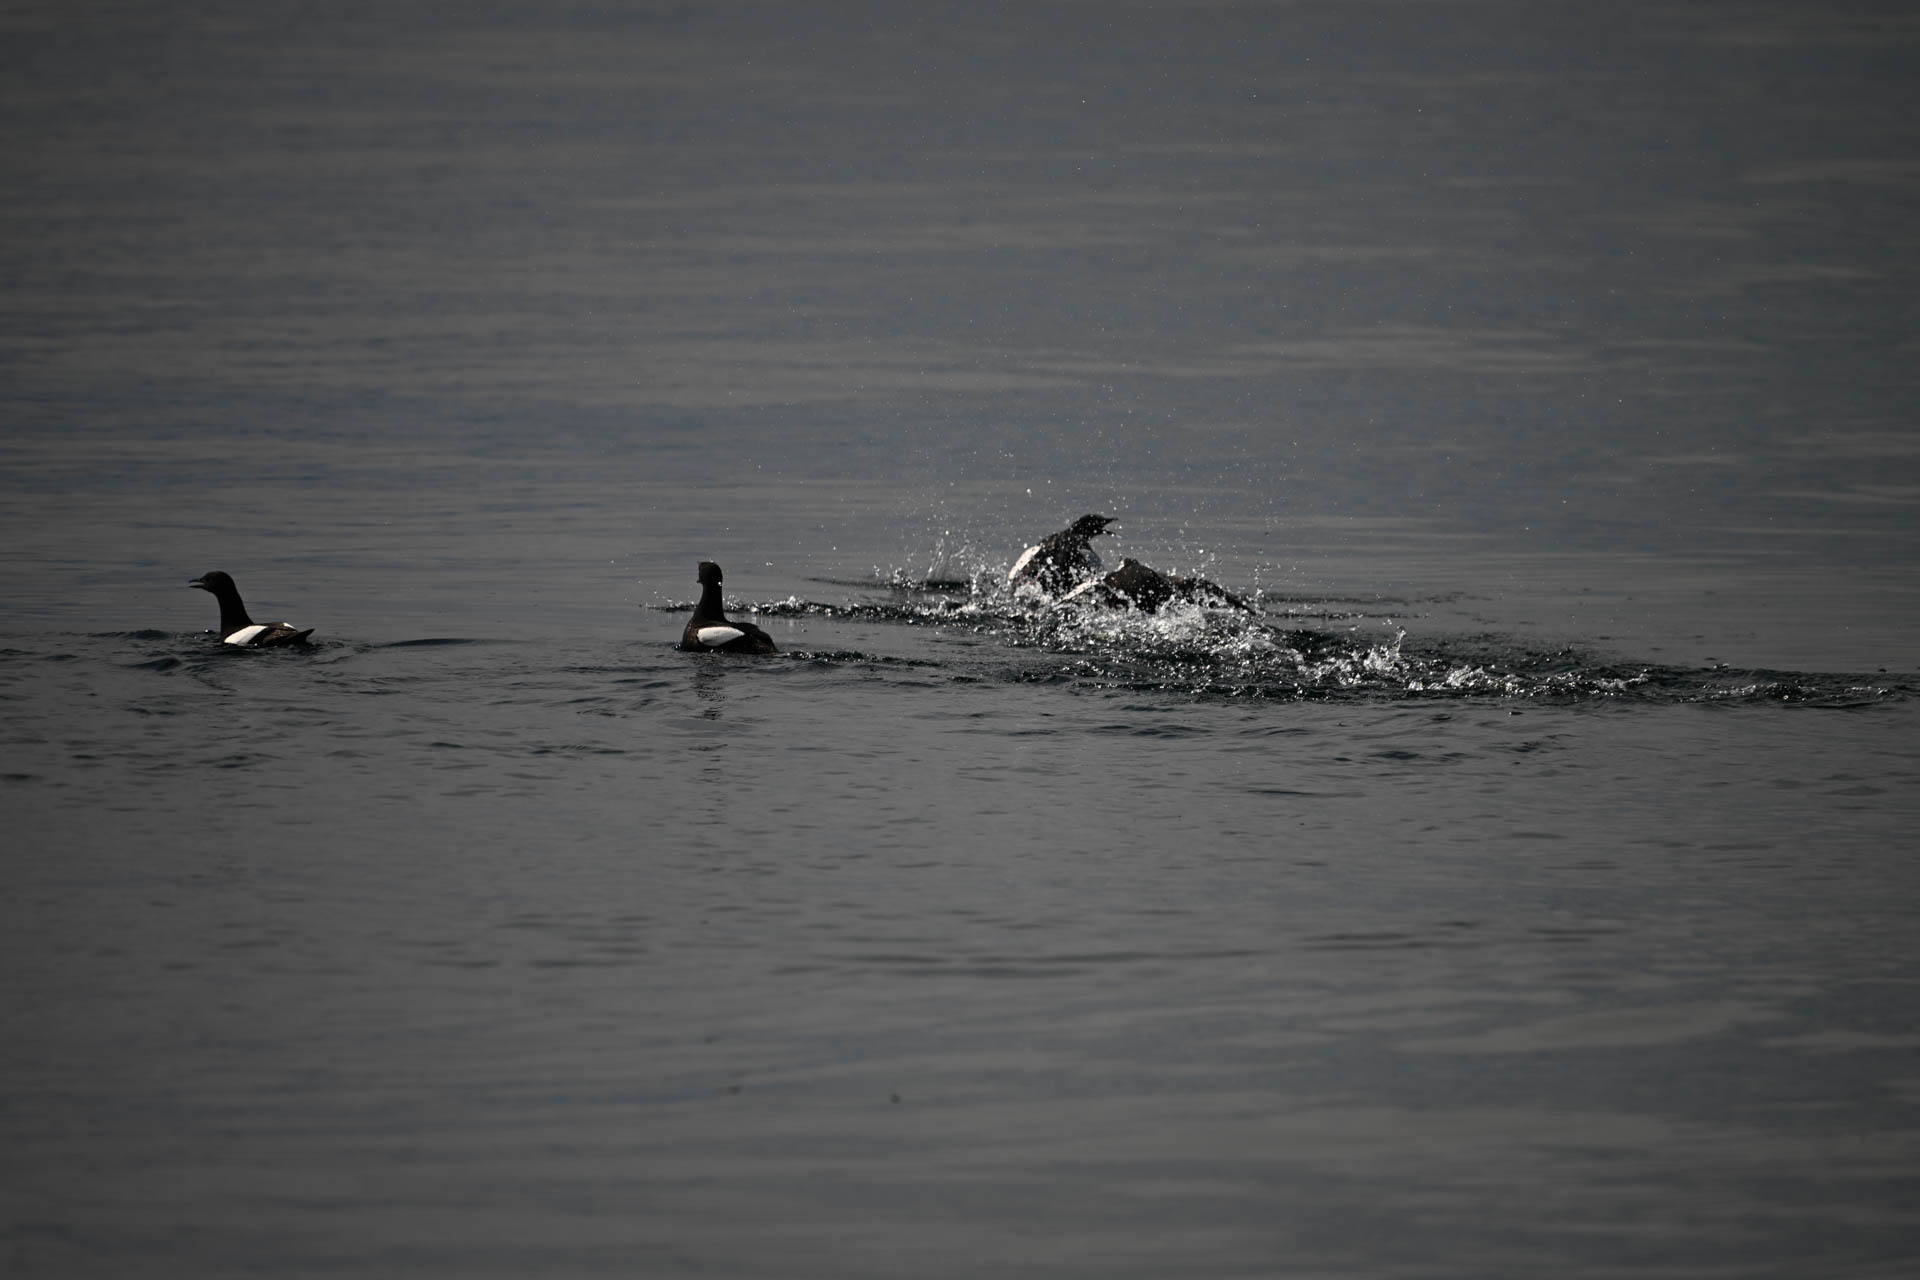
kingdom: Animalia
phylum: Chordata
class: Aves
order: Charadriiformes
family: Alcidae
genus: Cepphus
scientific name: Cepphus grylle
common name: Black guillemot
